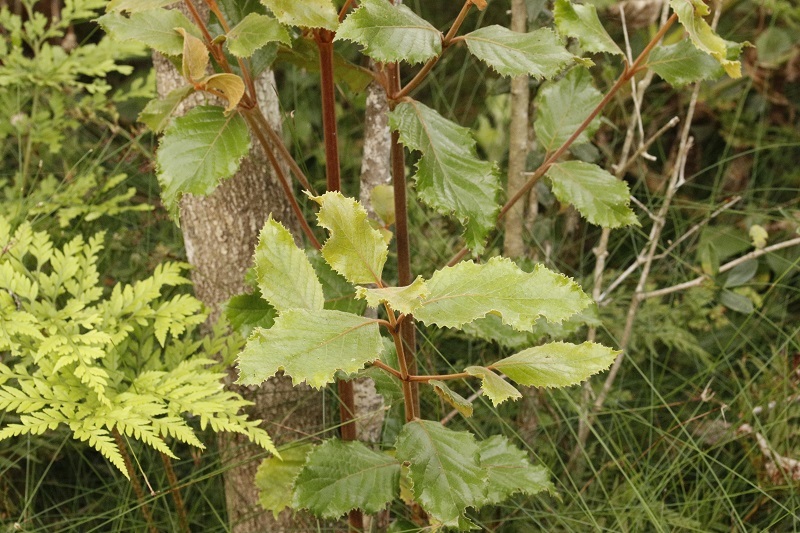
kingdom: Plantae
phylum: Tracheophyta
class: Magnoliopsida
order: Cornales
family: Curtisiaceae
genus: Curtisia
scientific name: Curtisia dentata
